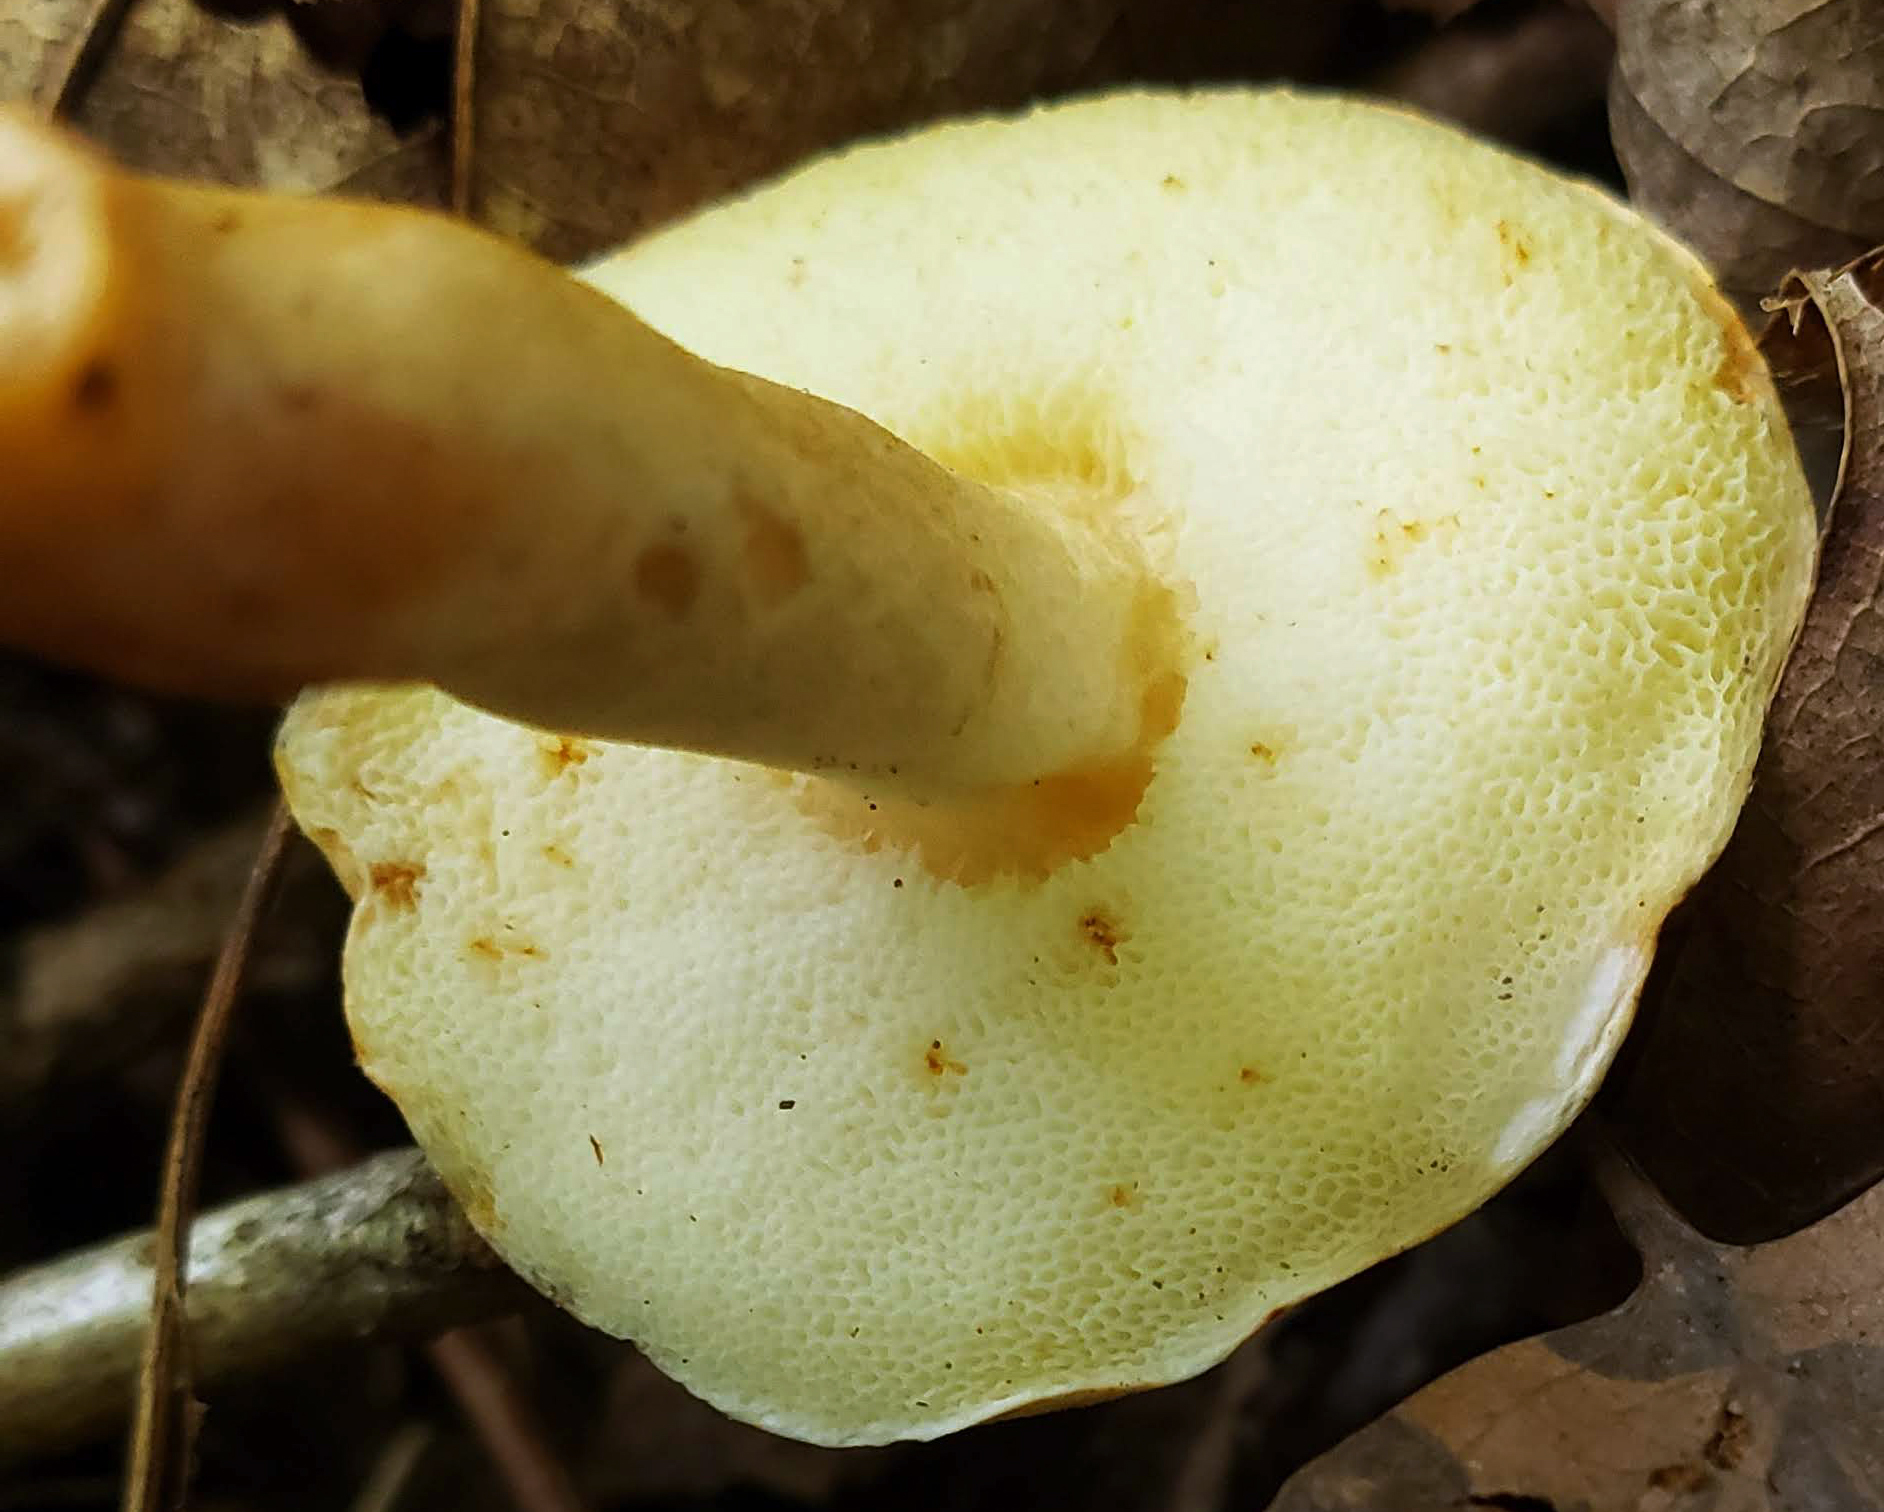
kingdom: Fungi
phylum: Basidiomycota
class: Agaricomycetes
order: Boletales
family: Gyroporaceae
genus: Gyroporus
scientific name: Gyroporus castaneus
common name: Chestnut bolete
